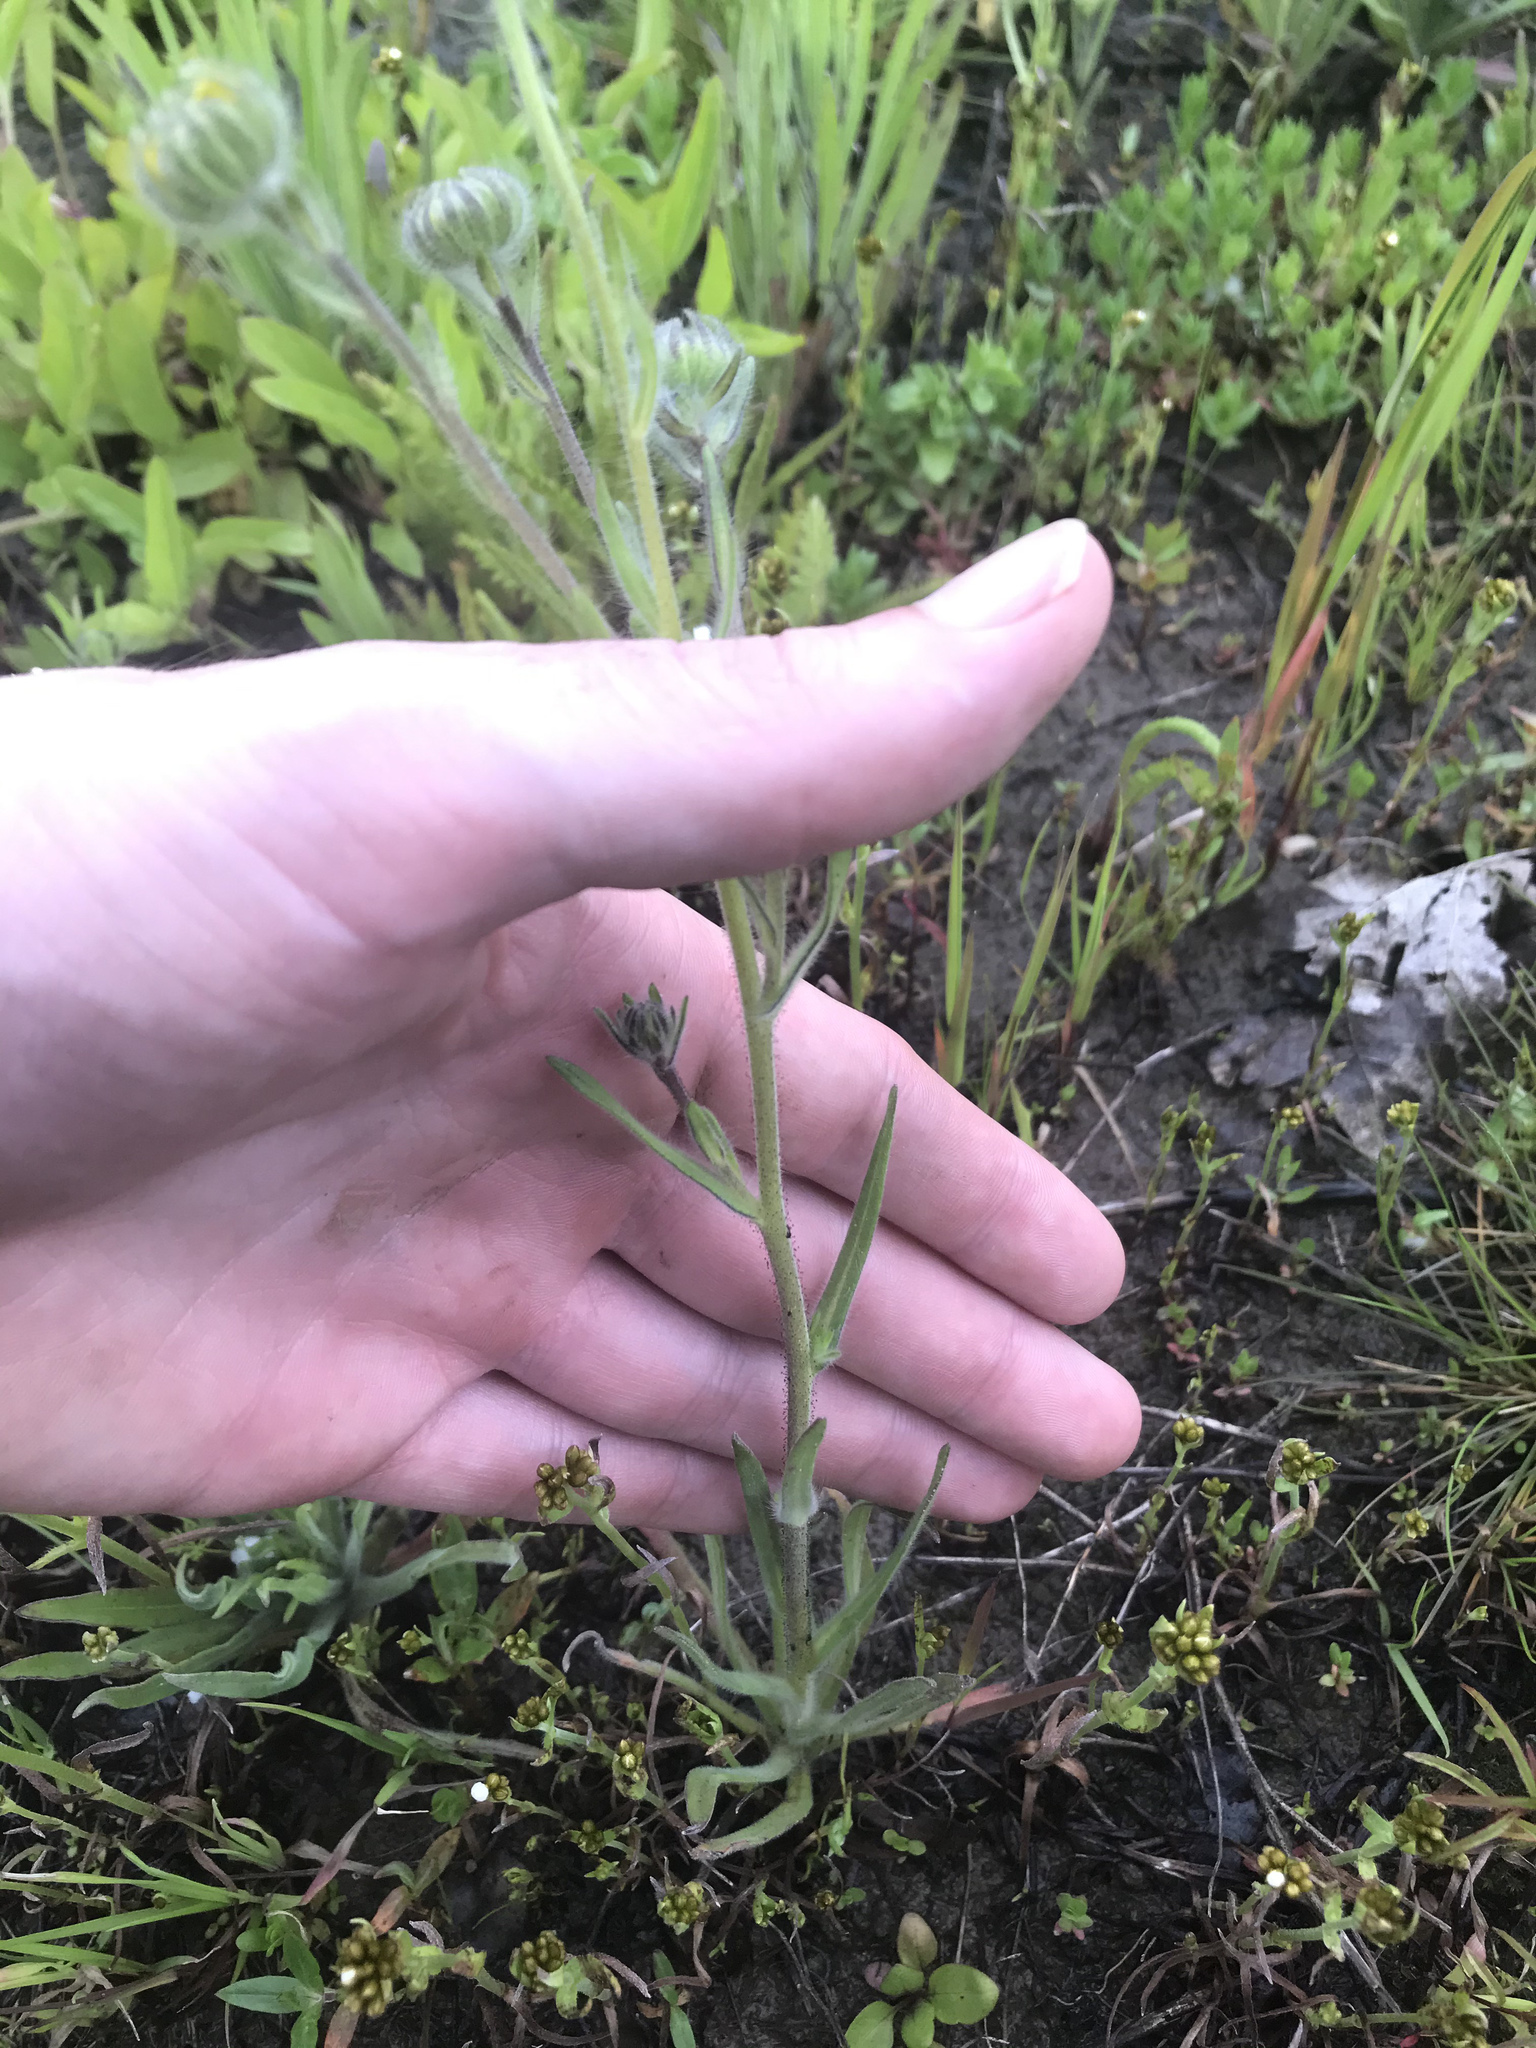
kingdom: Plantae
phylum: Tracheophyta
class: Magnoliopsida
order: Asterales
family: Asteraceae
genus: Madia
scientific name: Madia elegans
